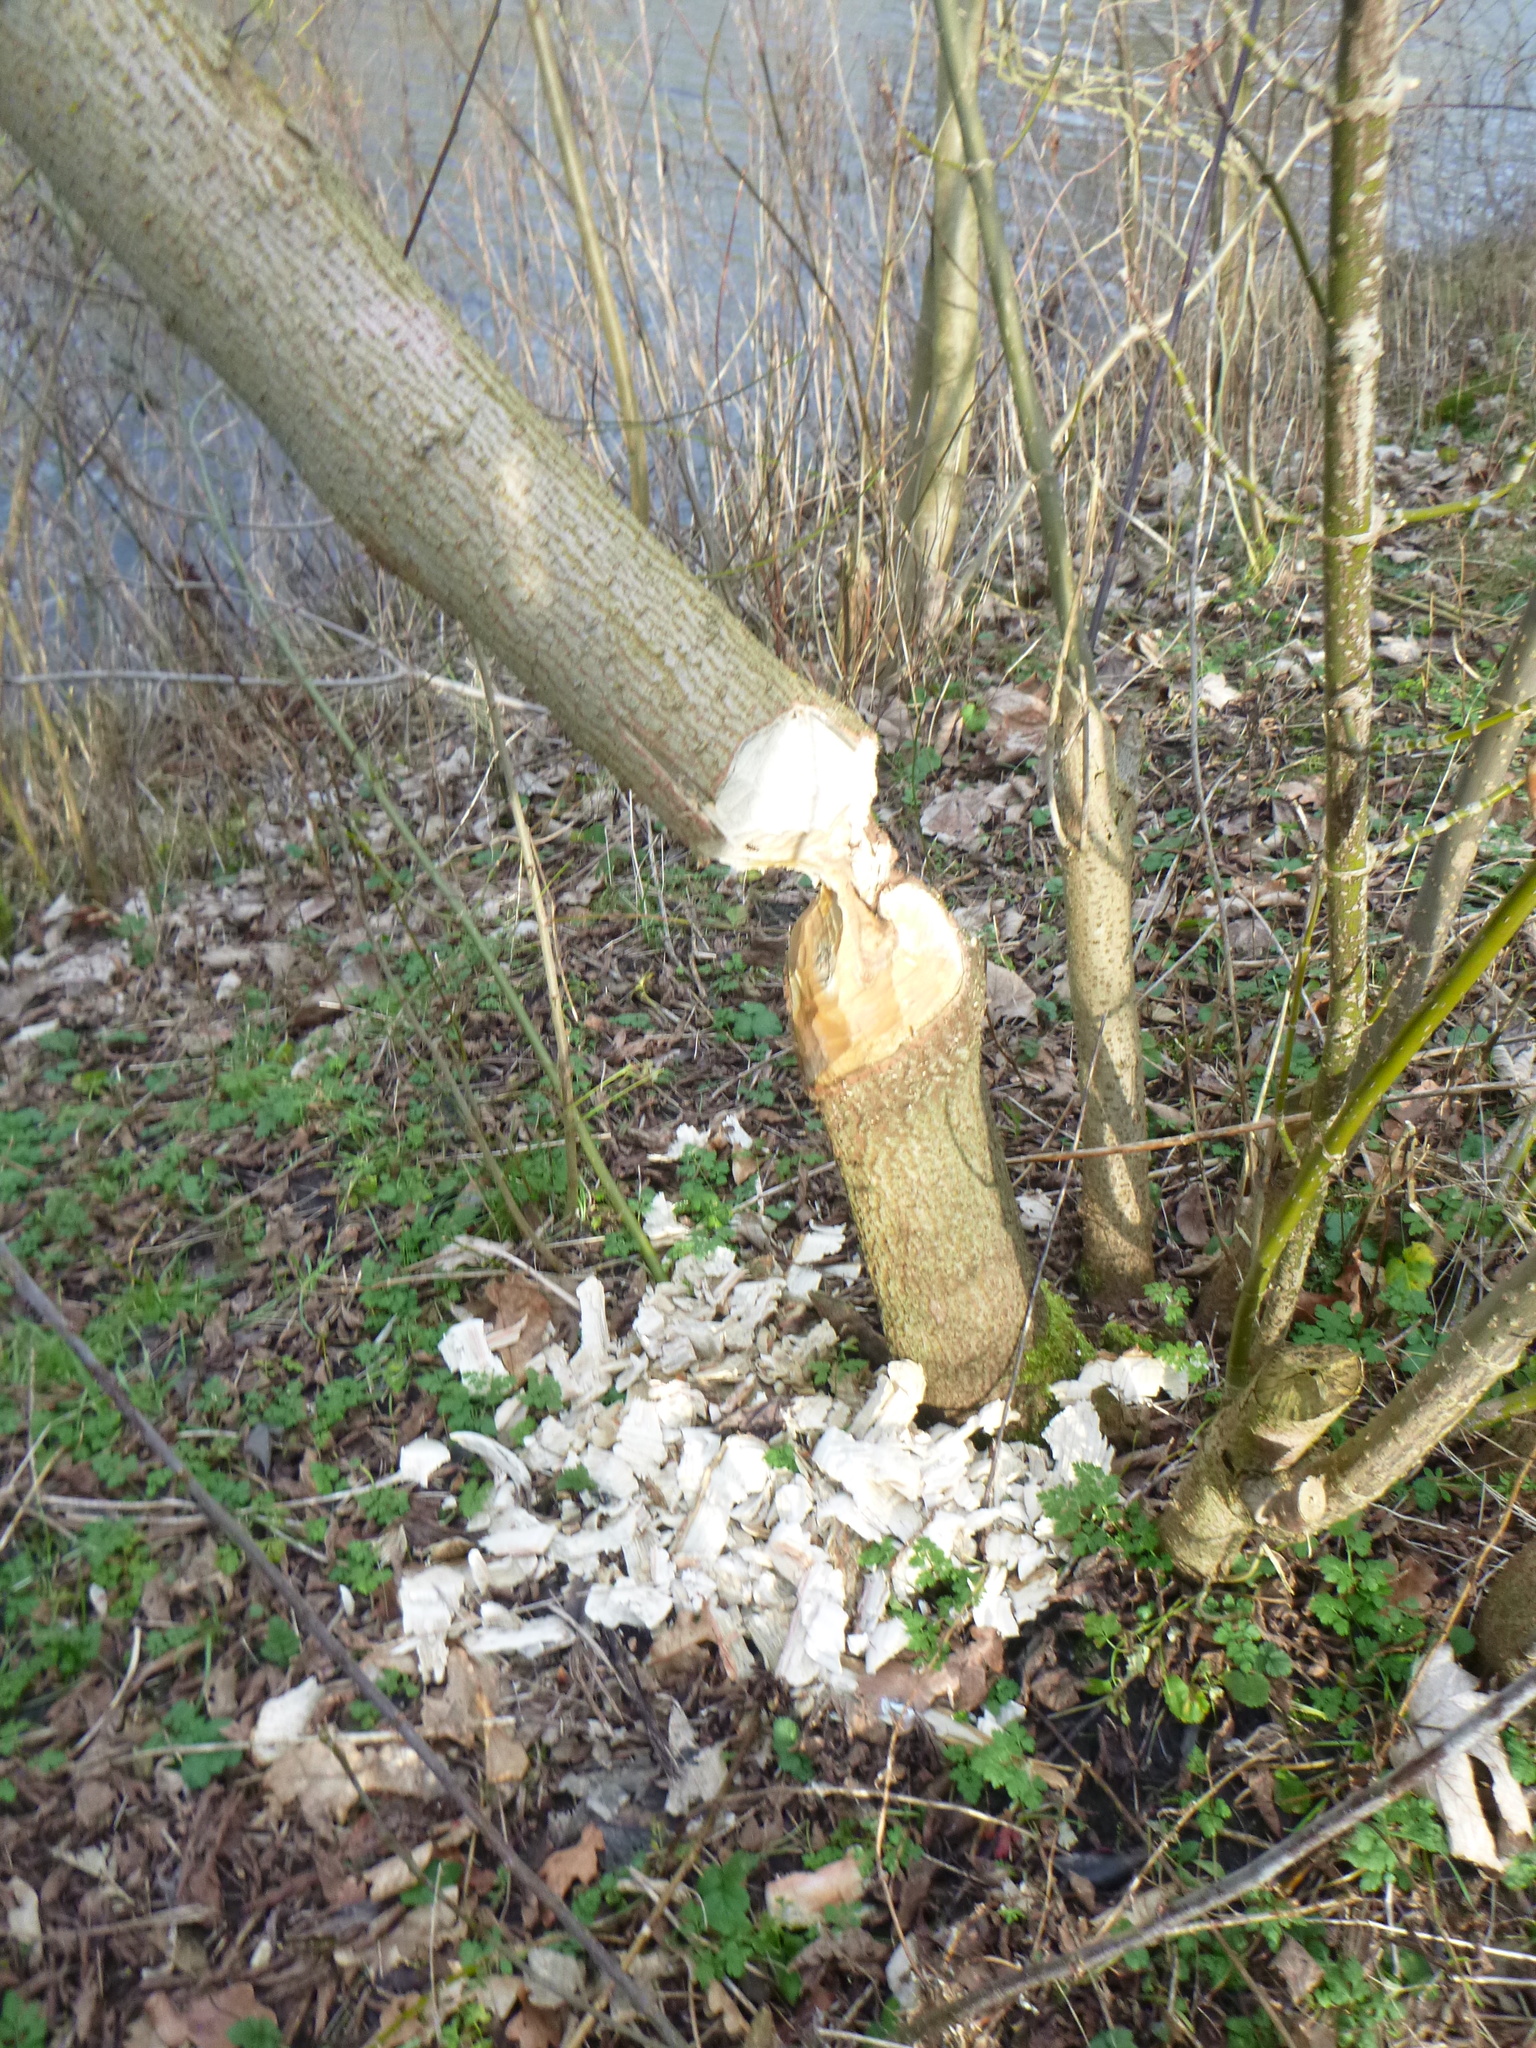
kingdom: Animalia
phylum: Chordata
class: Mammalia
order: Rodentia
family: Castoridae
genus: Castor
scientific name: Castor fiber
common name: Eurasian beaver
